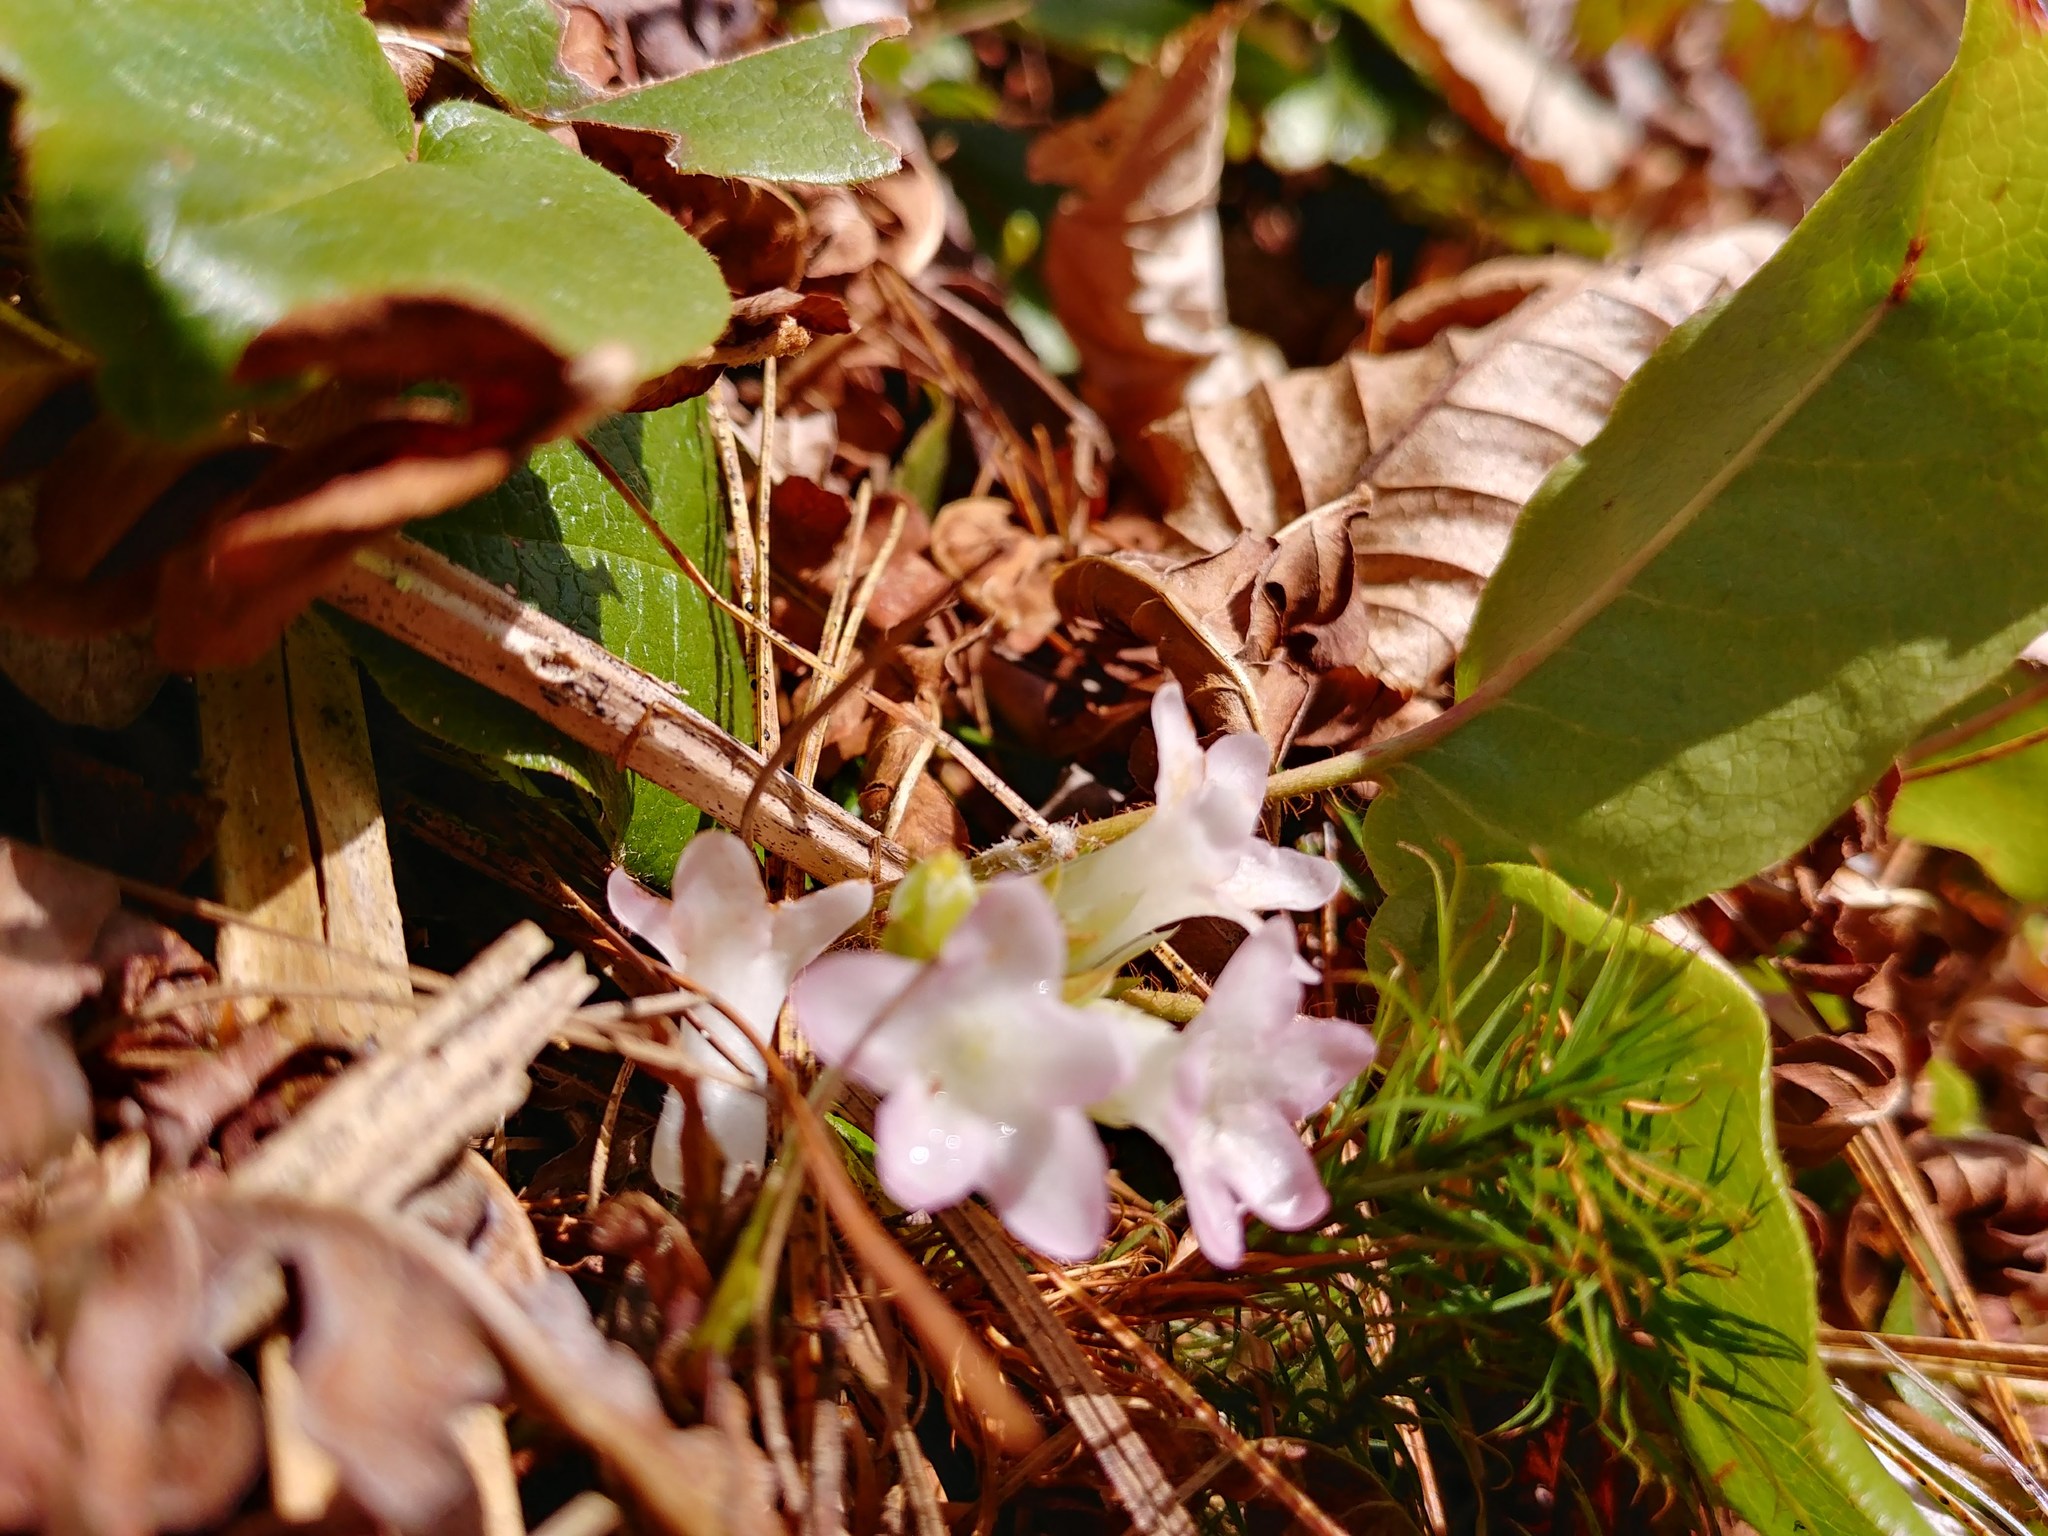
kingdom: Plantae
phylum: Tracheophyta
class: Magnoliopsida
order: Ericales
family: Ericaceae
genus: Epigaea
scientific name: Epigaea repens
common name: Gravelroot
